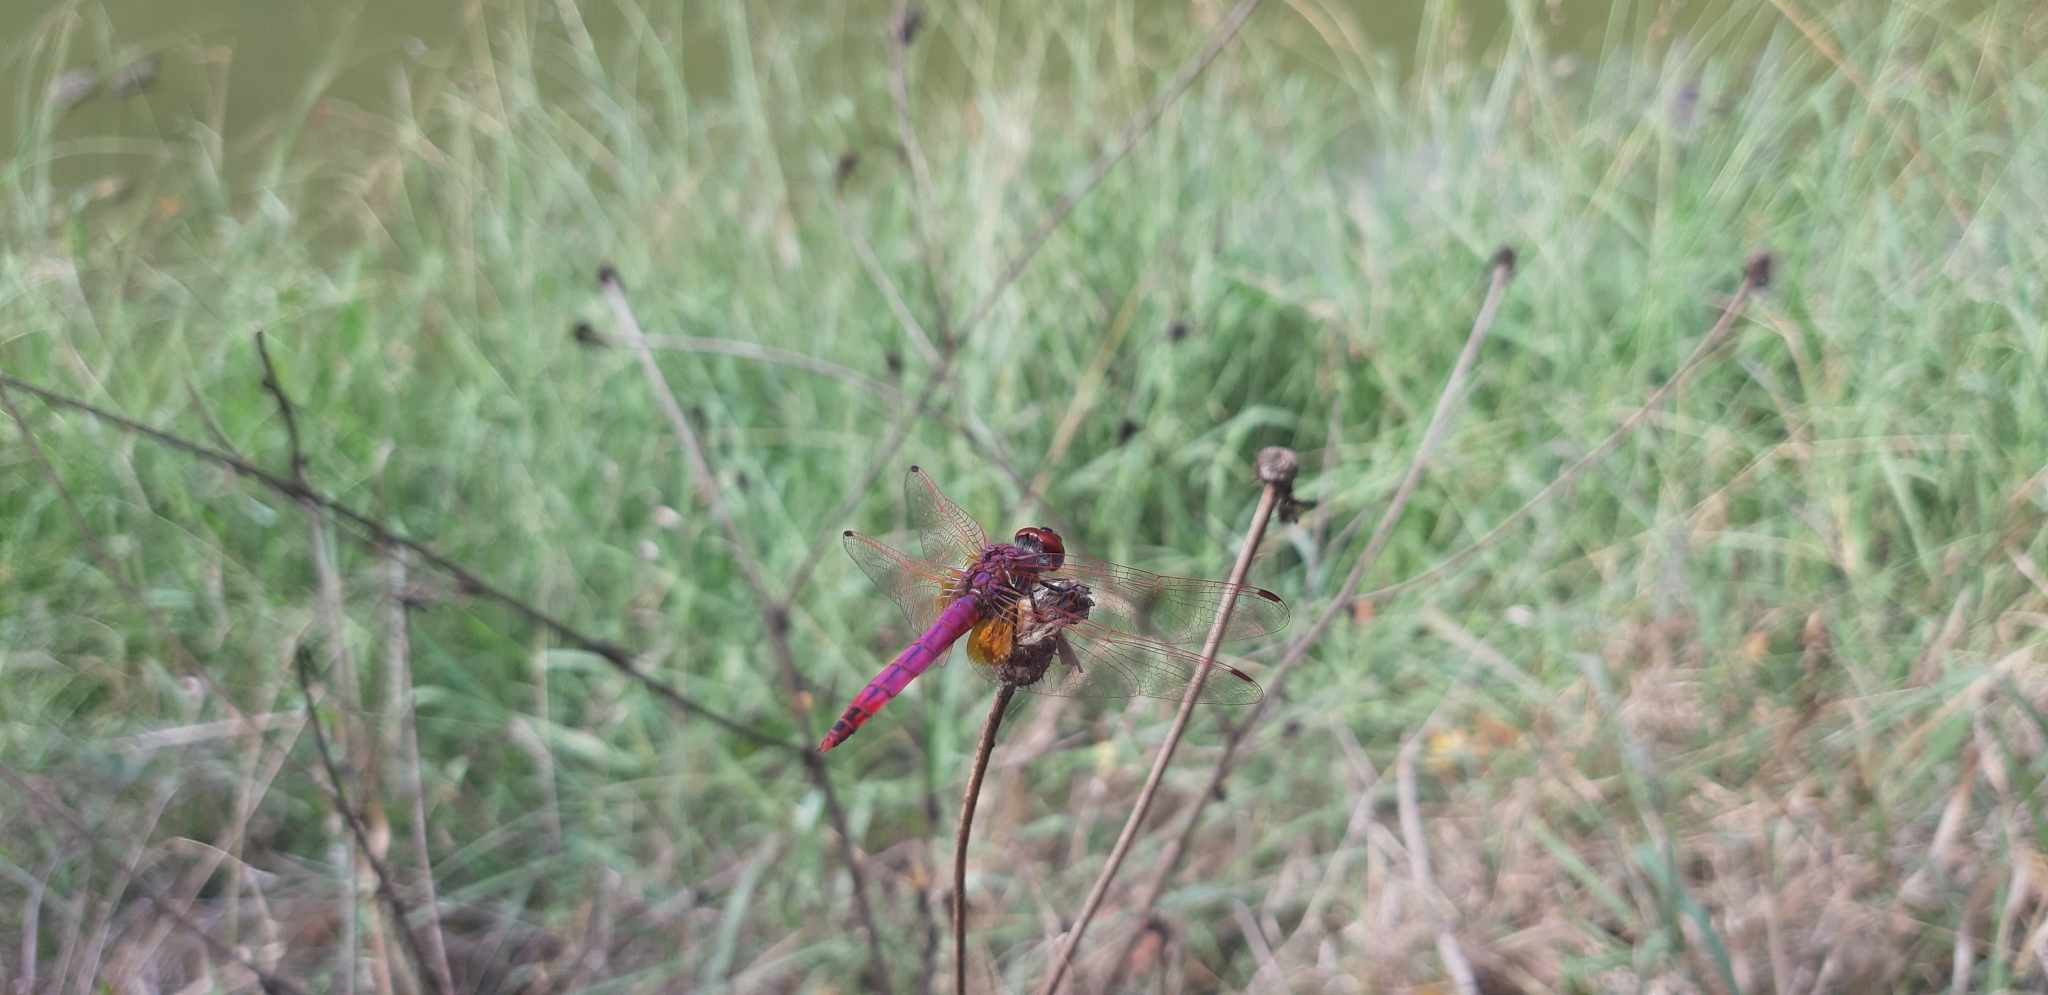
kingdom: Animalia
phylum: Arthropoda
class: Insecta
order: Odonata
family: Libellulidae
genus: Trithemis
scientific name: Trithemis annulata
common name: Violet dropwing
